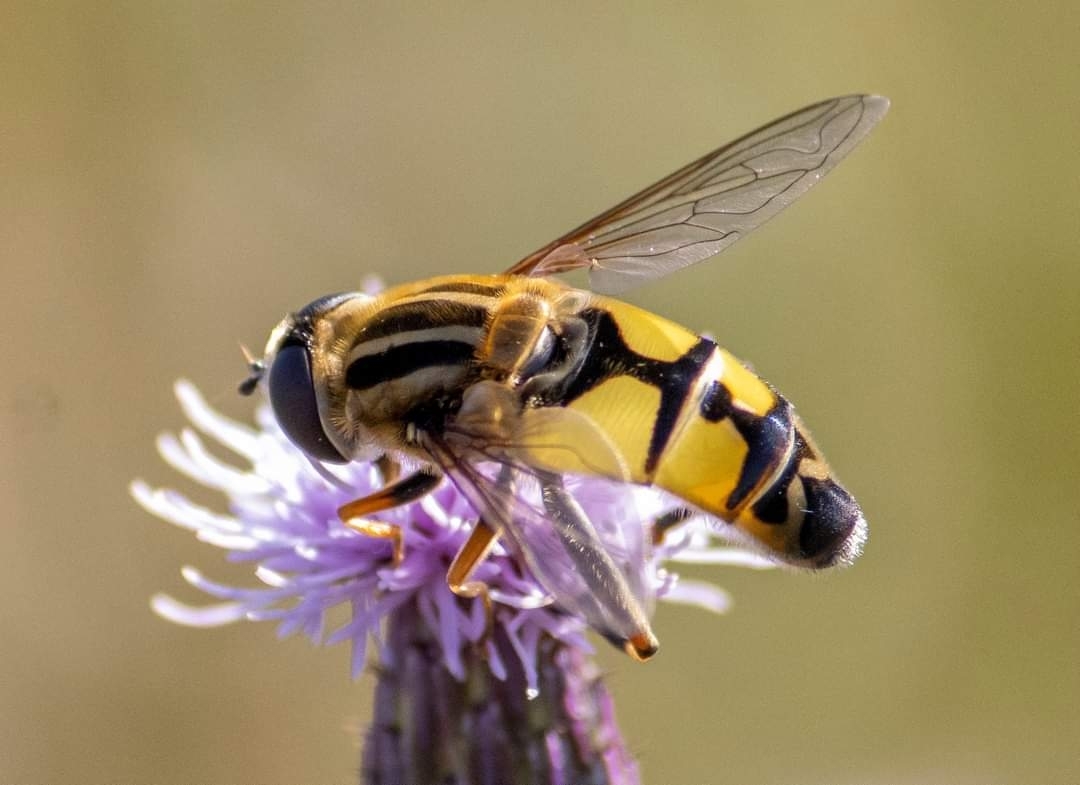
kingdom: Animalia
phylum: Arthropoda
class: Insecta
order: Diptera
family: Syrphidae
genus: Helophilus
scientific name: Helophilus trivittatus
